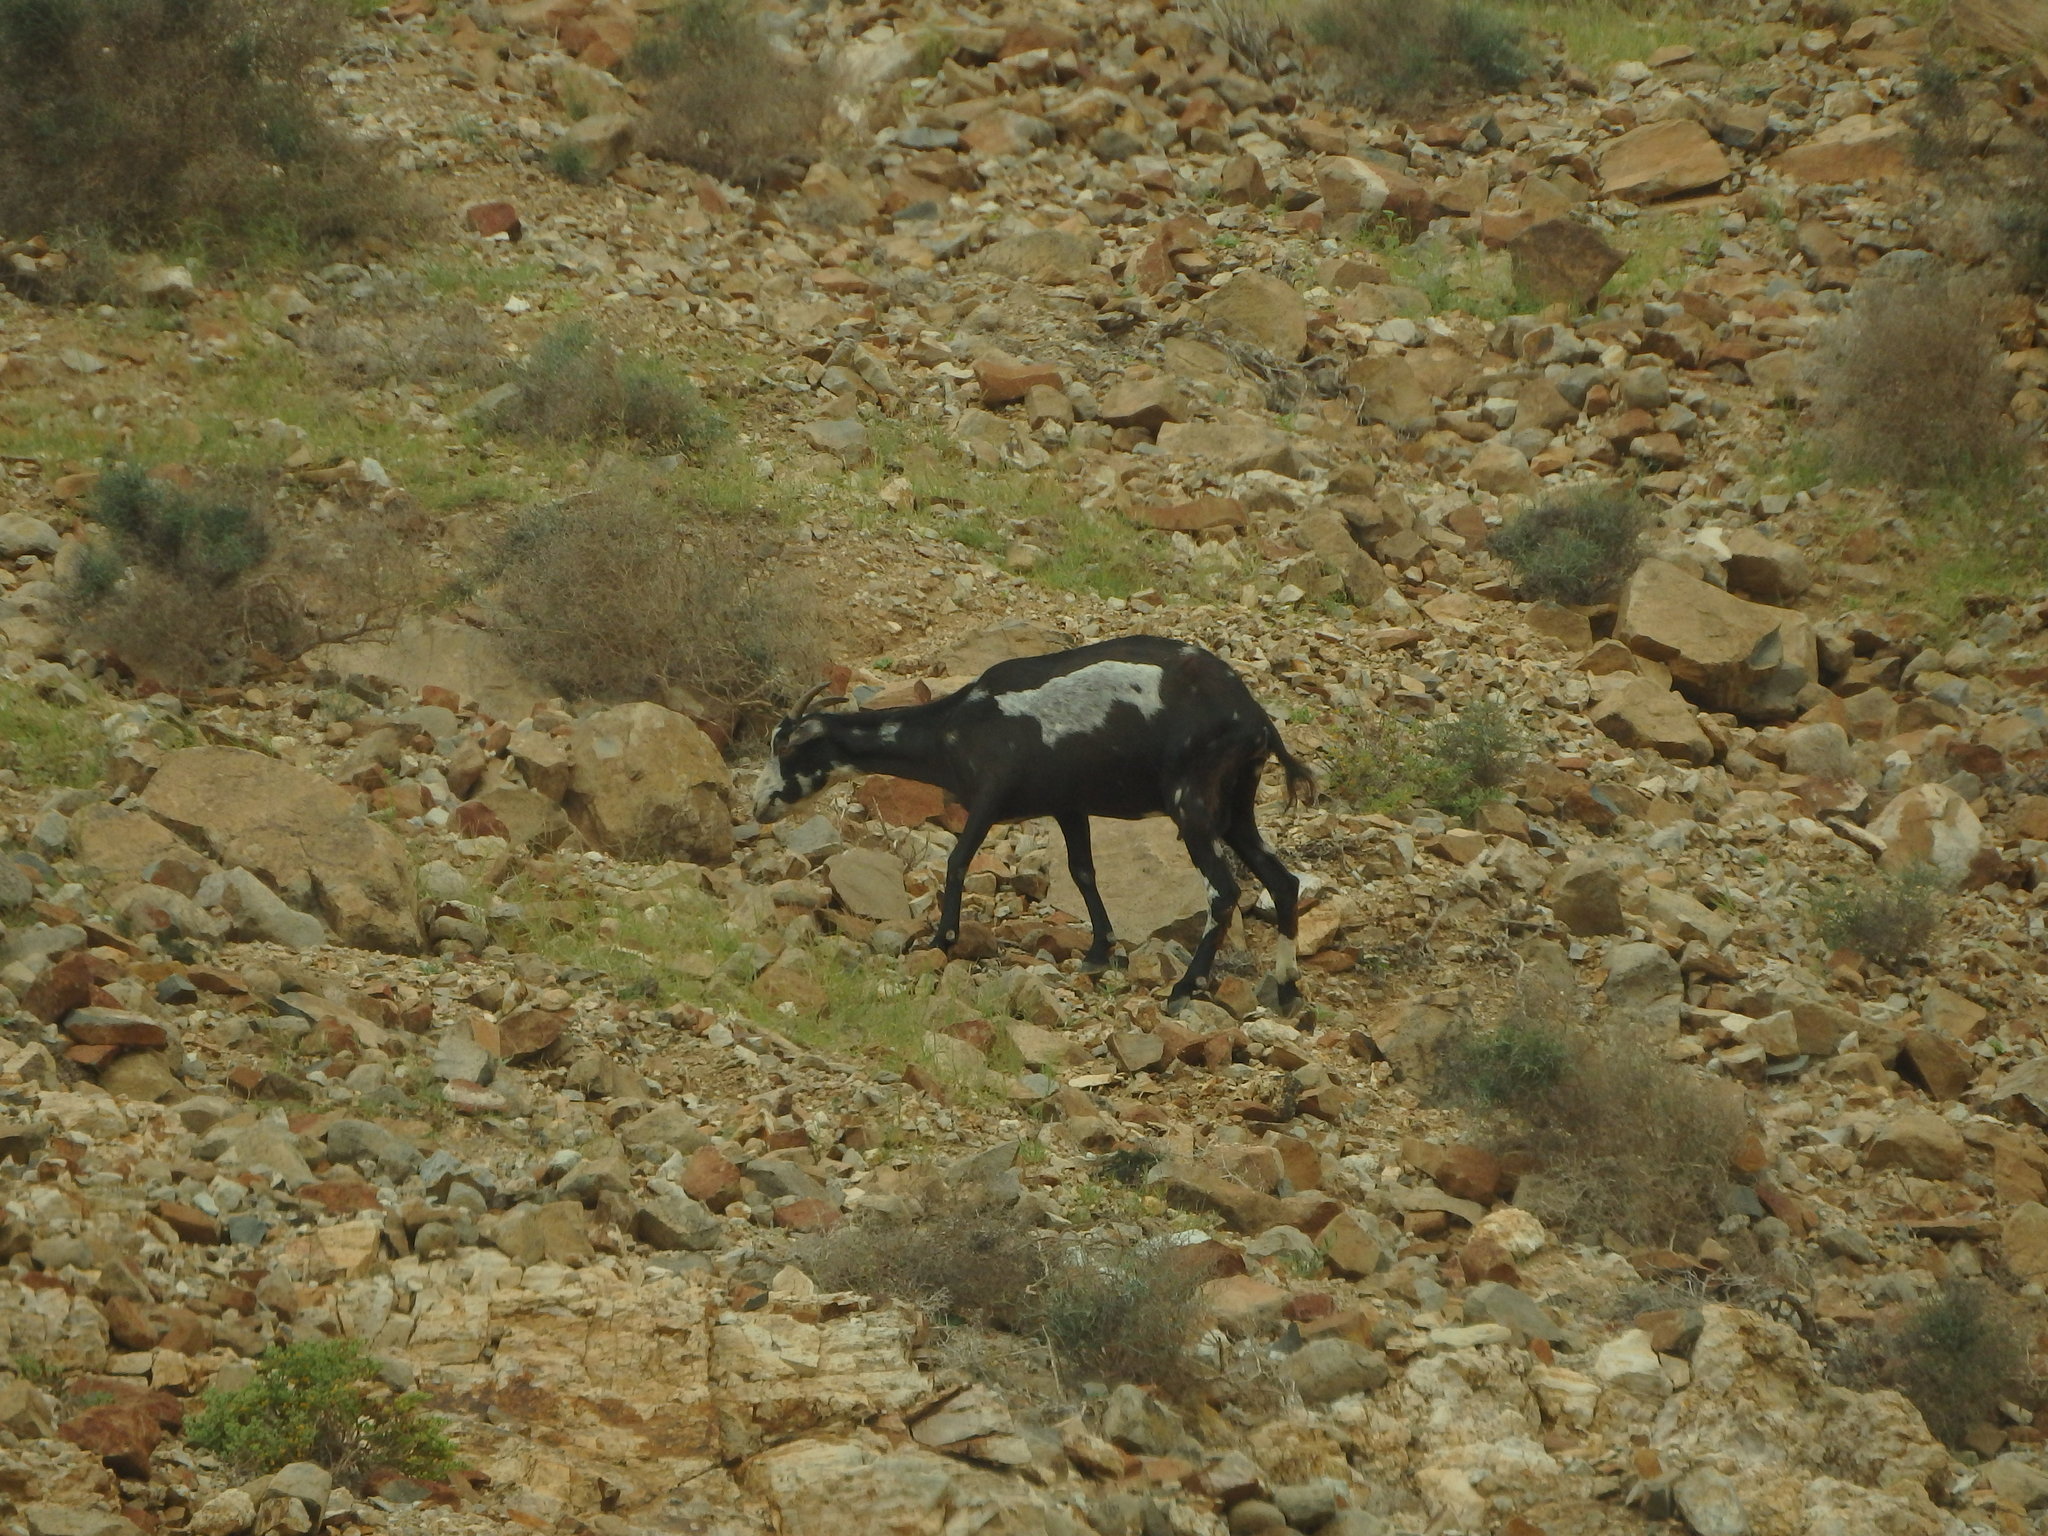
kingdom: Animalia
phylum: Chordata
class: Mammalia
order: Artiodactyla
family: Bovidae
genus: Capra
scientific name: Capra hircus
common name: Domestic goat
